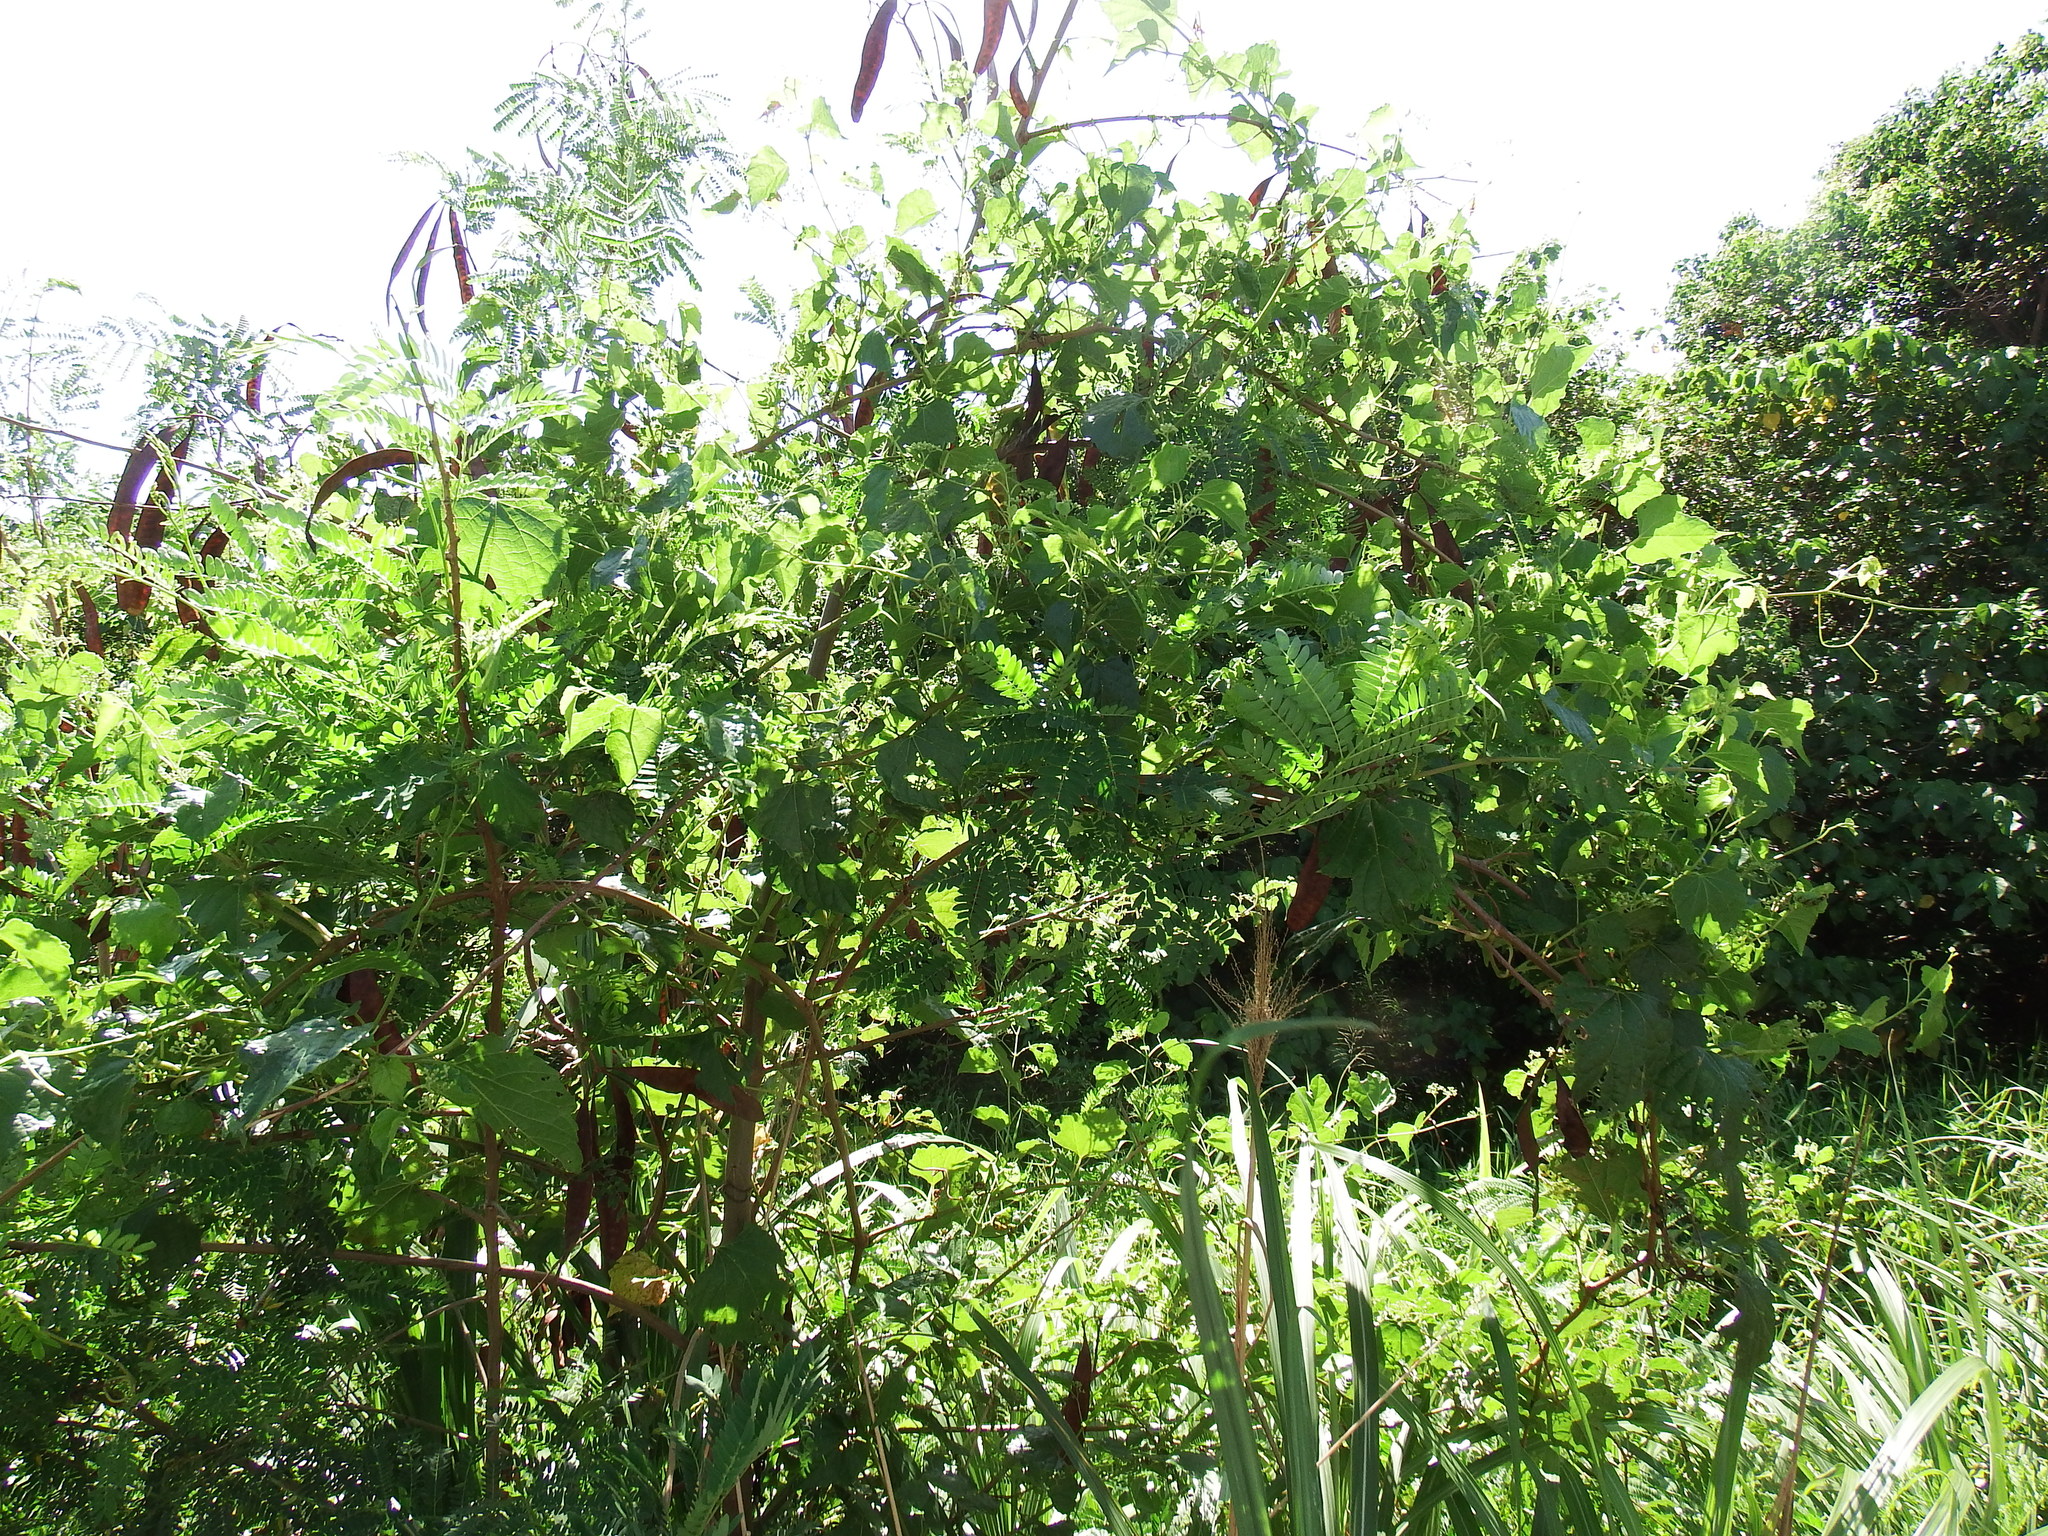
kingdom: Plantae
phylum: Tracheophyta
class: Magnoliopsida
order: Fabales
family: Fabaceae
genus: Leucaena
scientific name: Leucaena leucocephala
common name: White leadtree
